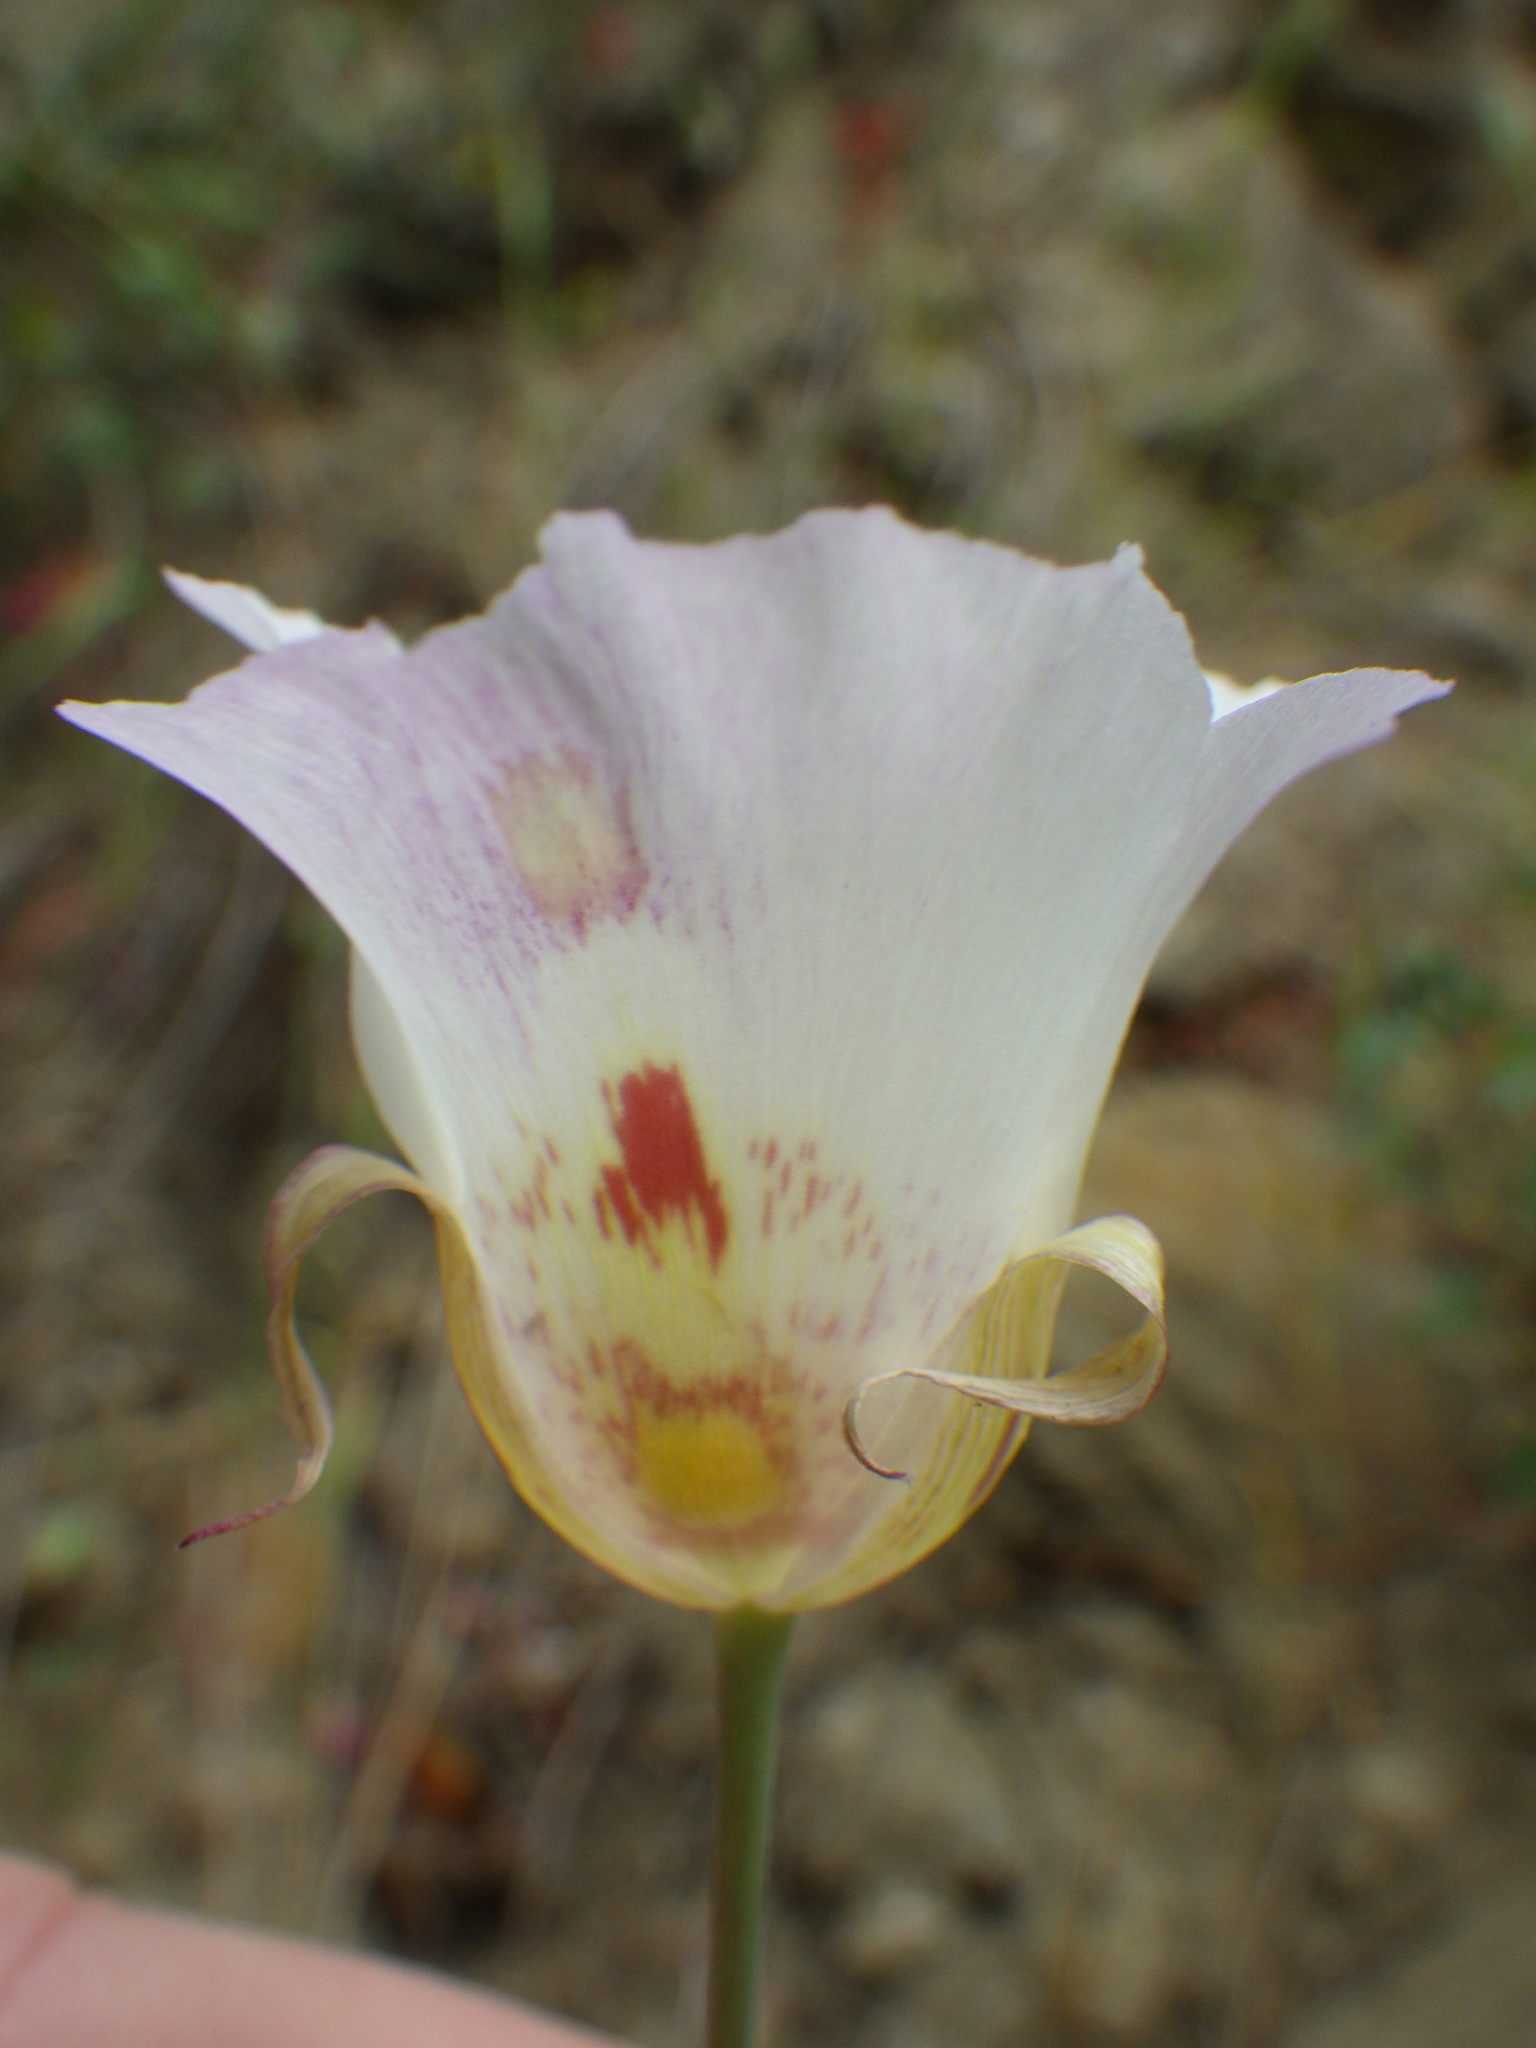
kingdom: Plantae
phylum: Tracheophyta
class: Liliopsida
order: Liliales
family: Liliaceae
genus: Calochortus
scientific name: Calochortus venustus
